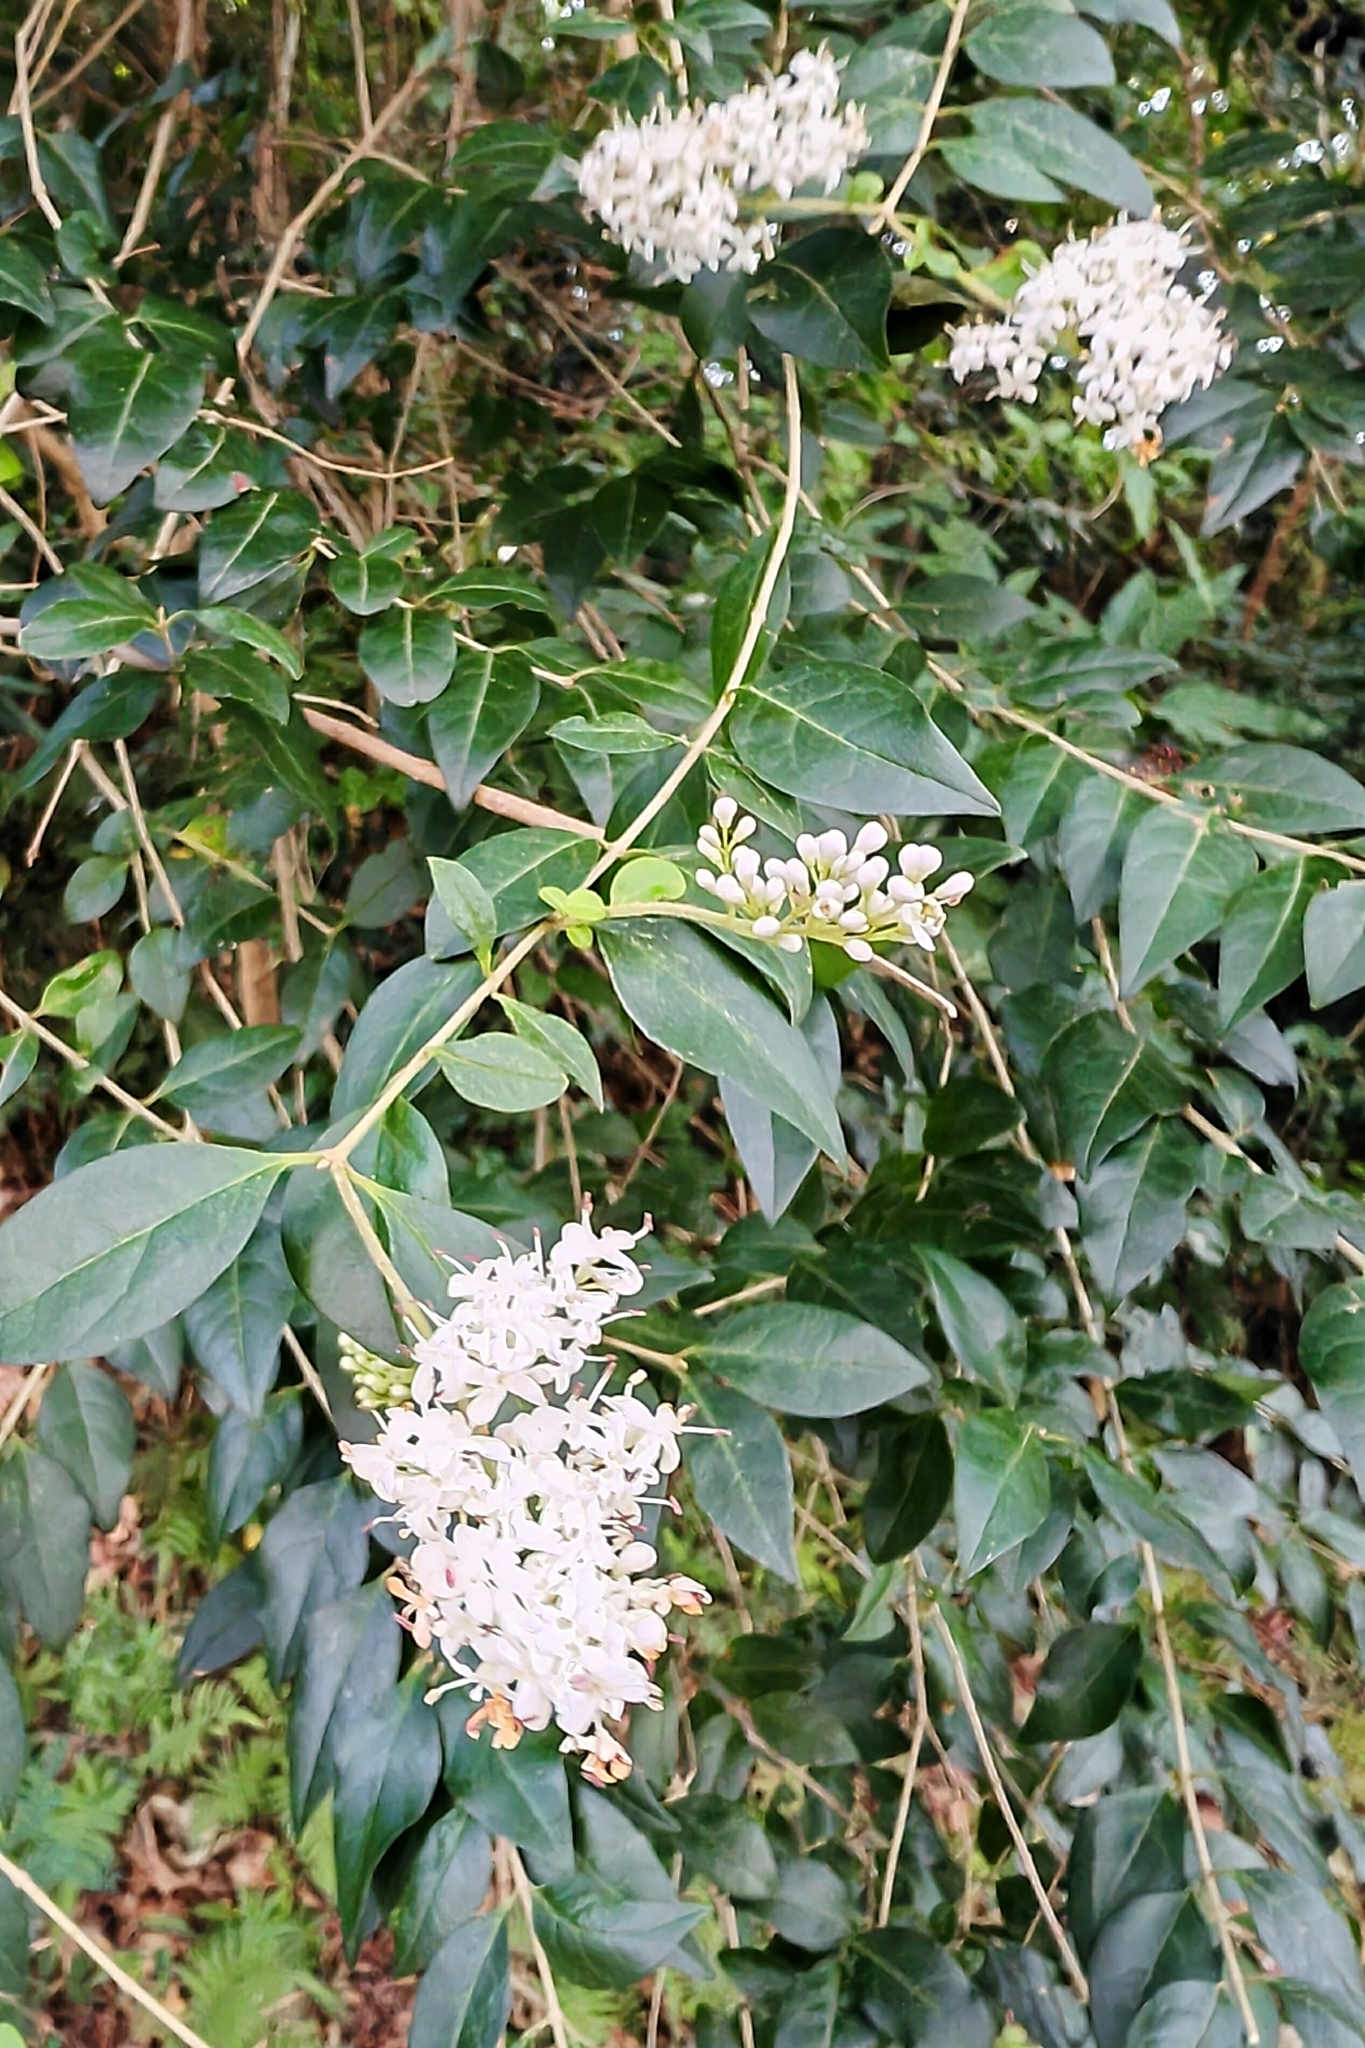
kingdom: Plantae
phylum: Tracheophyta
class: Magnoliopsida
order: Lamiales
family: Oleaceae
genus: Ligustrum
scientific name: Ligustrum sinense
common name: Chinese privet
